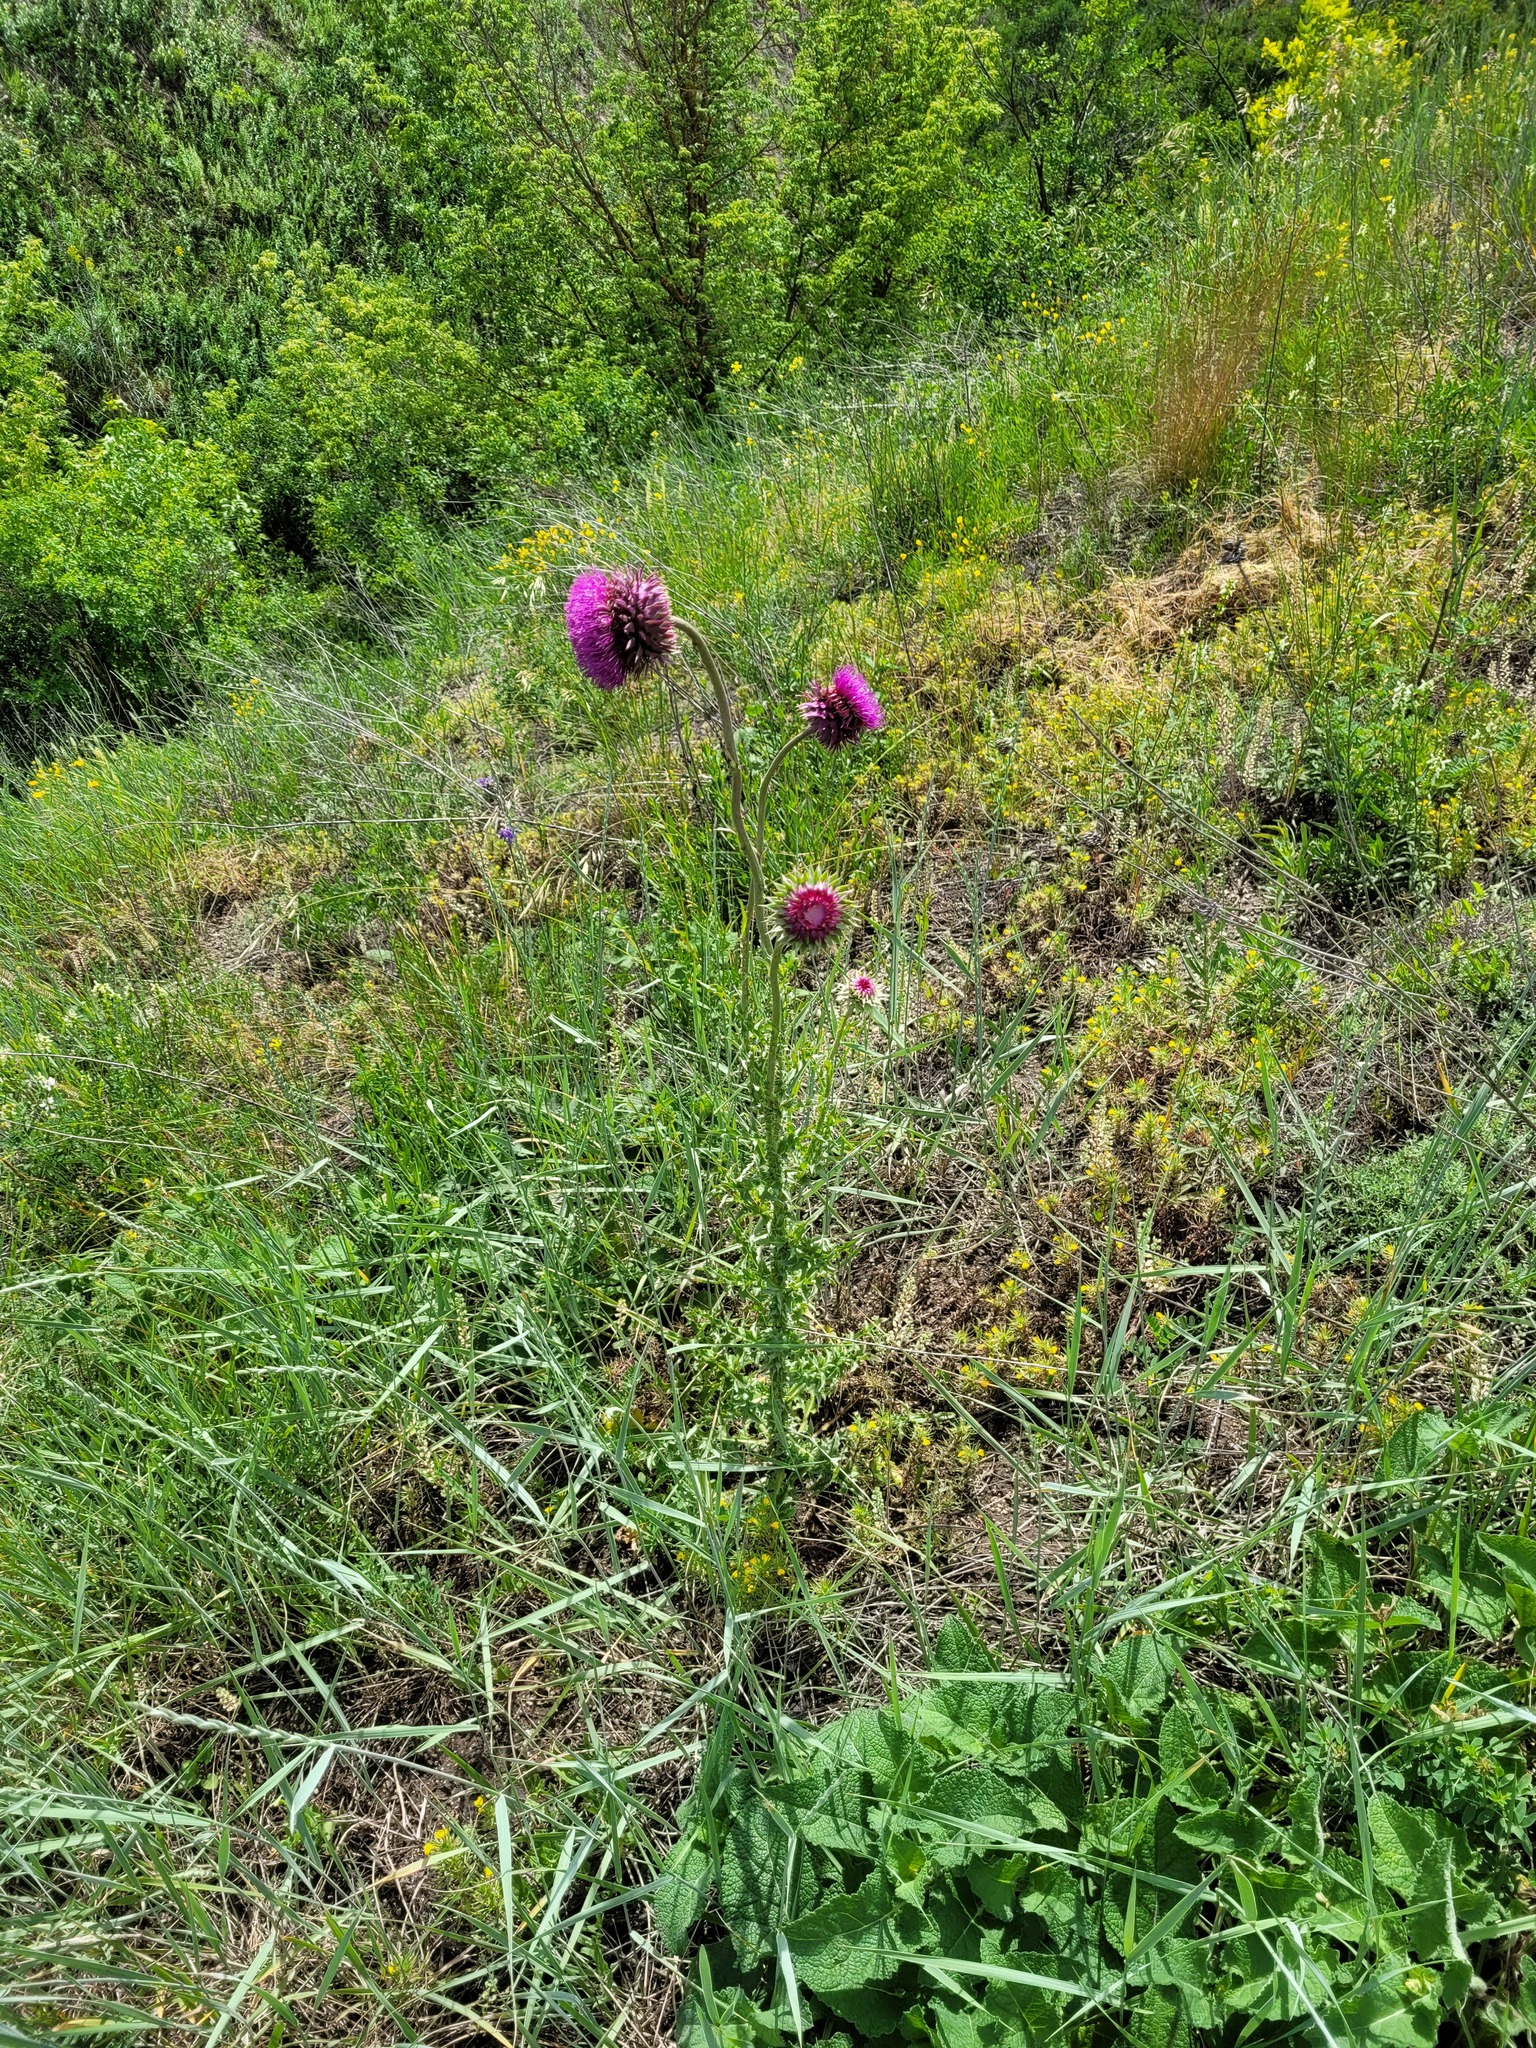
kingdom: Plantae
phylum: Tracheophyta
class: Magnoliopsida
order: Asterales
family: Asteraceae
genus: Carduus
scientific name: Carduus nutans
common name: Musk thistle
